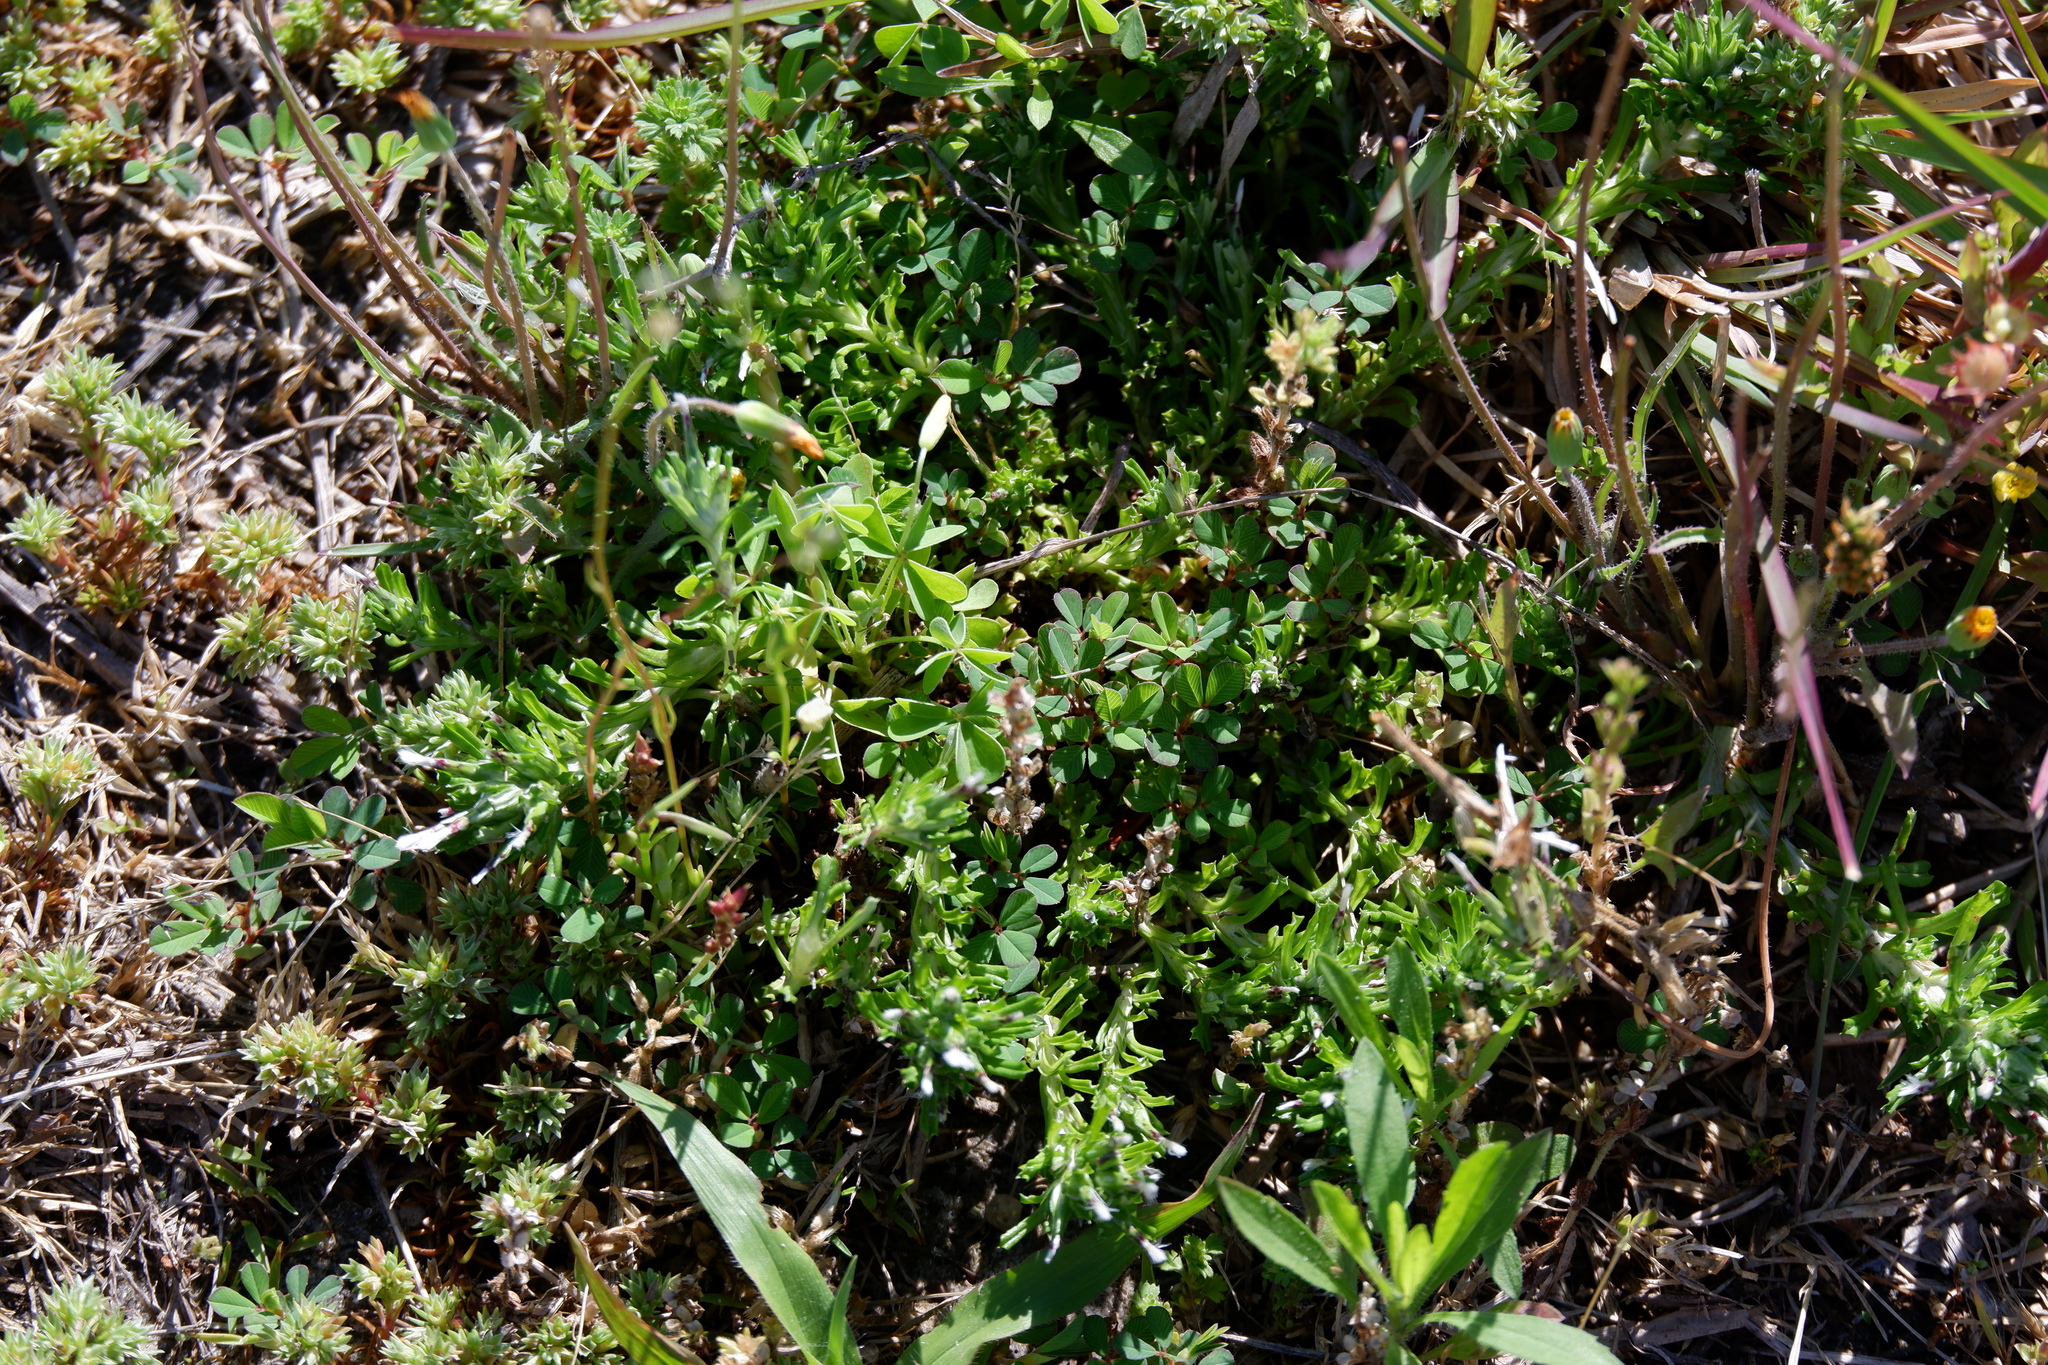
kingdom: Plantae
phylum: Tracheophyta
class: Magnoliopsida
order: Asterales
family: Asteraceae
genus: Facelis
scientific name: Facelis retusa
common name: Annual trampweed
